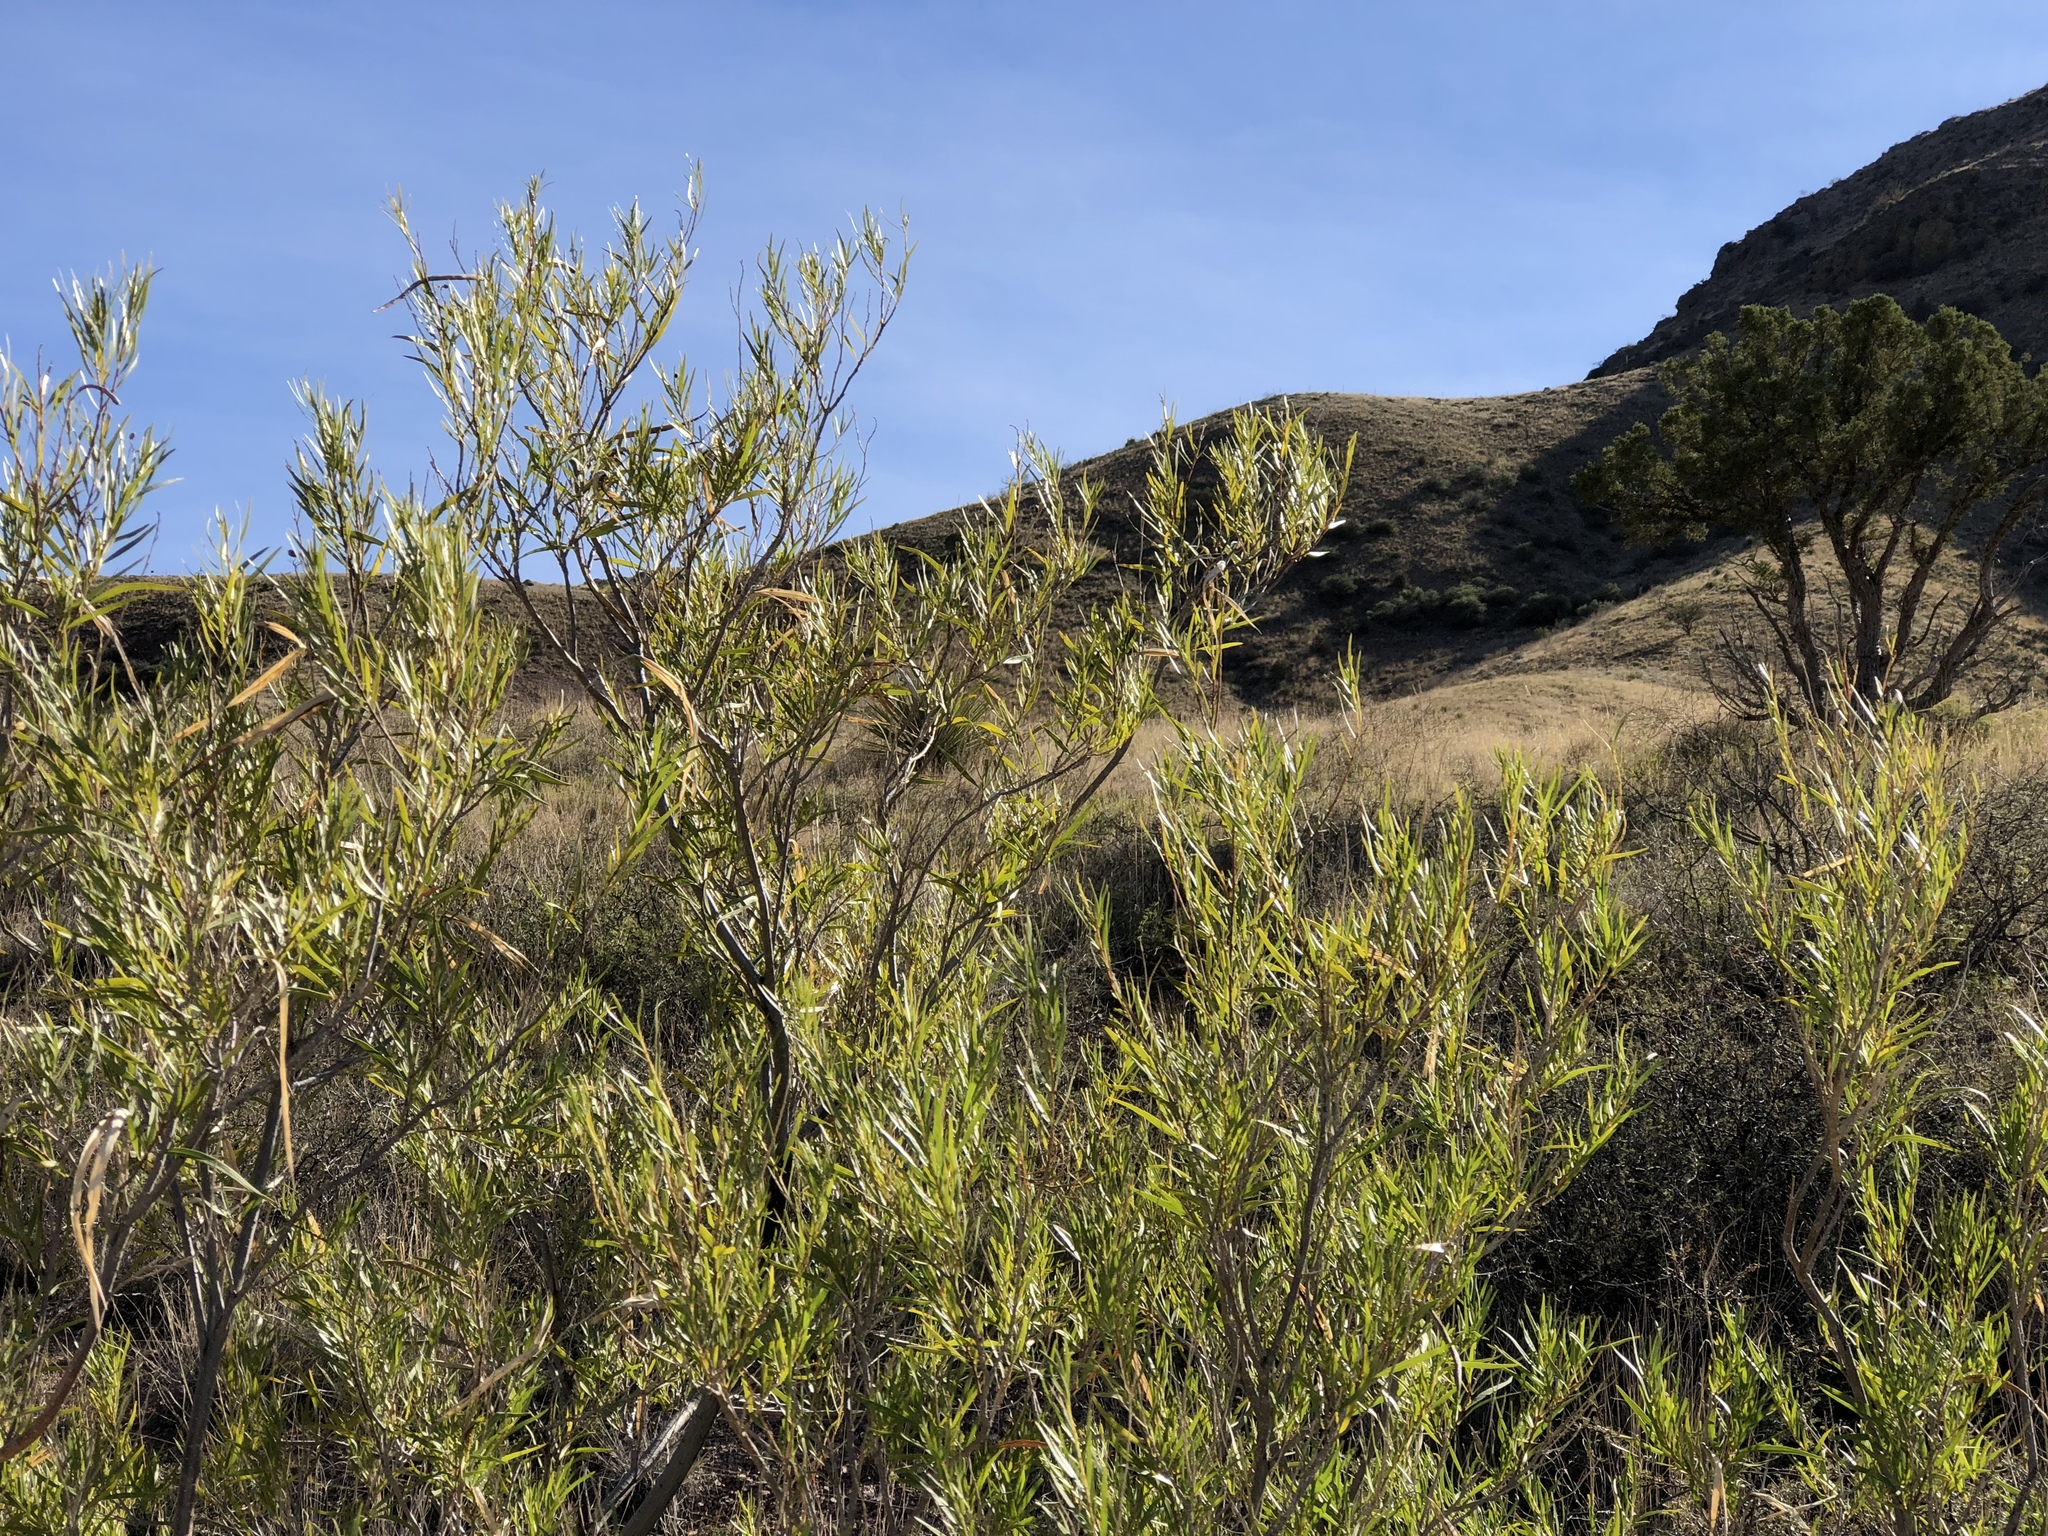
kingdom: Plantae
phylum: Tracheophyta
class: Magnoliopsida
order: Lamiales
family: Bignoniaceae
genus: Chilopsis
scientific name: Chilopsis linearis
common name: Desert-willow
